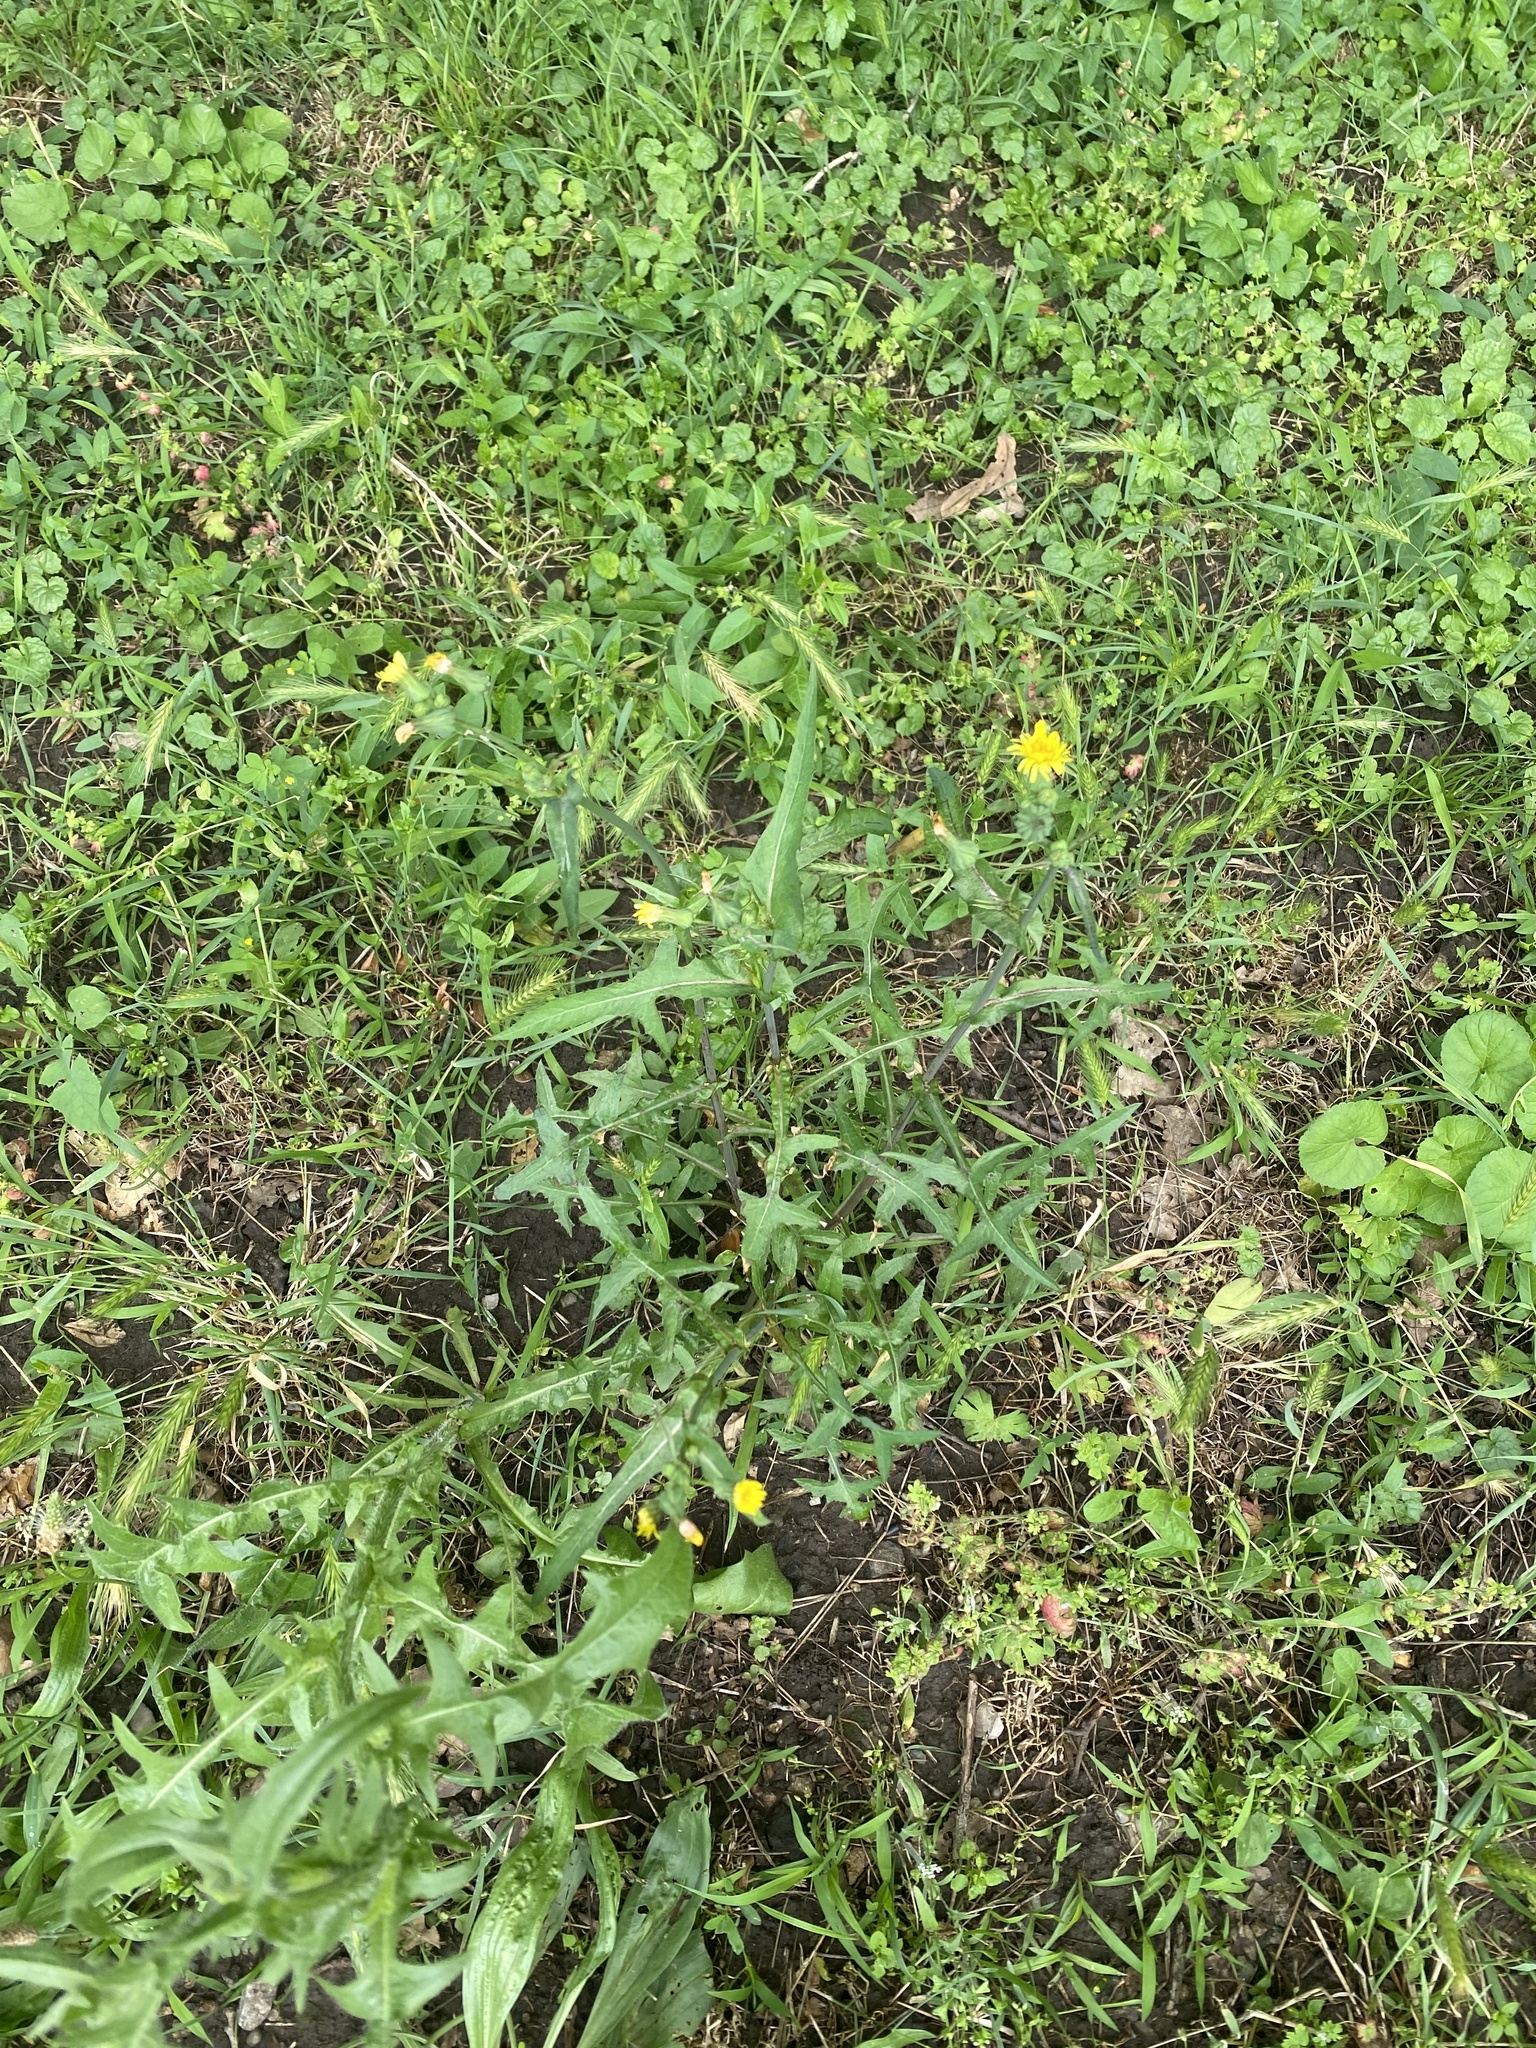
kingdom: Plantae
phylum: Tracheophyta
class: Magnoliopsida
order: Asterales
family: Asteraceae
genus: Sonchus
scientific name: Sonchus oleraceus
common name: Common sowthistle
